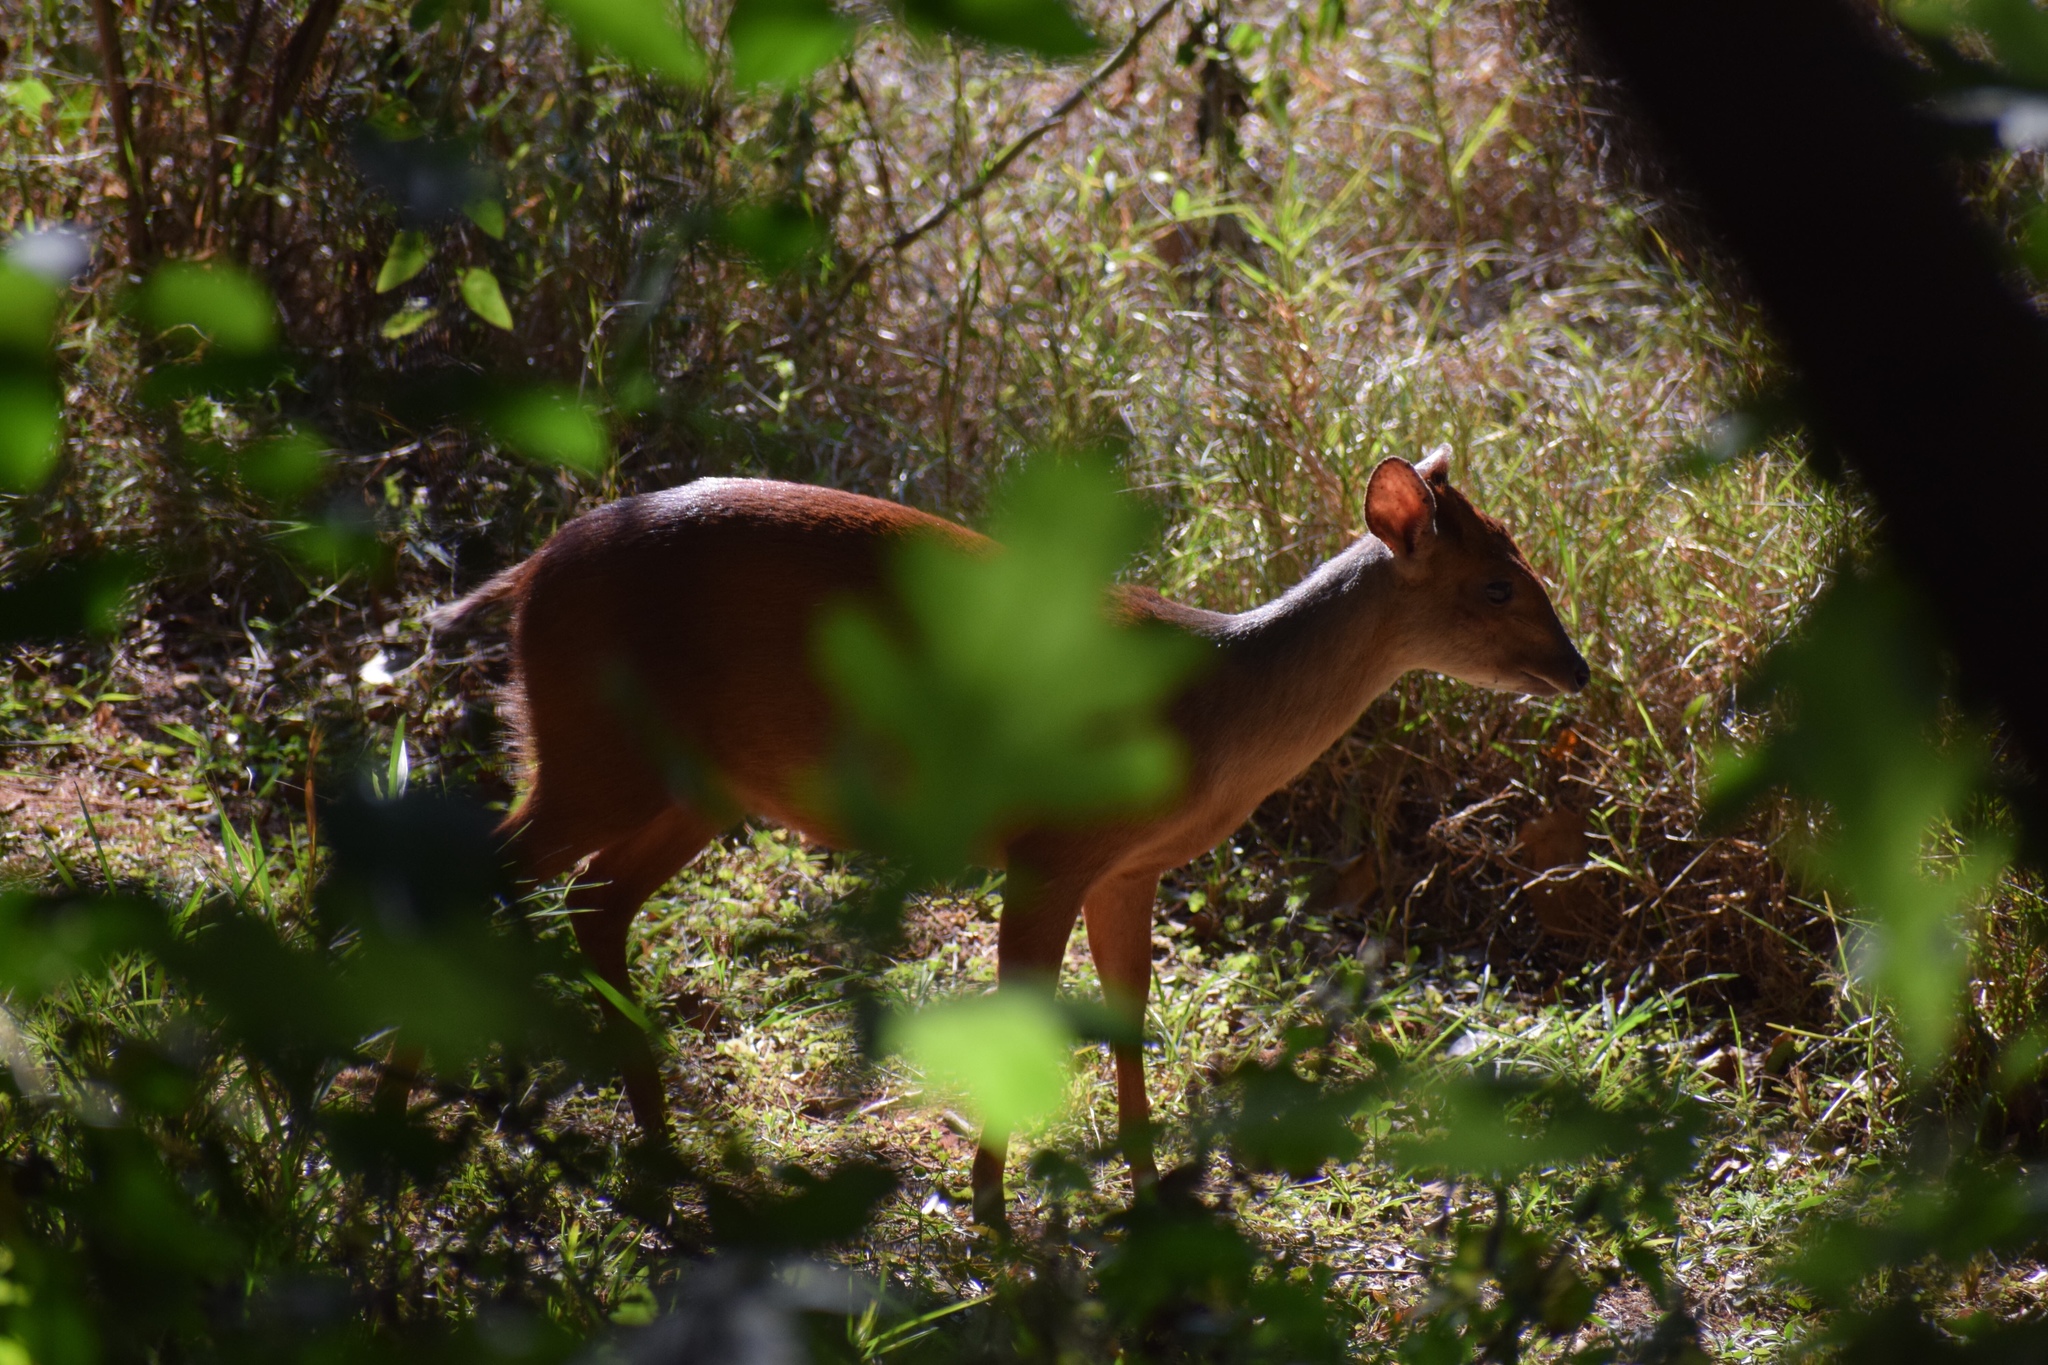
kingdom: Animalia
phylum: Chordata
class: Mammalia
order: Artiodactyla
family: Bovidae
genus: Cephalophus
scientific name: Cephalophus natalensis
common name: Red duiker
